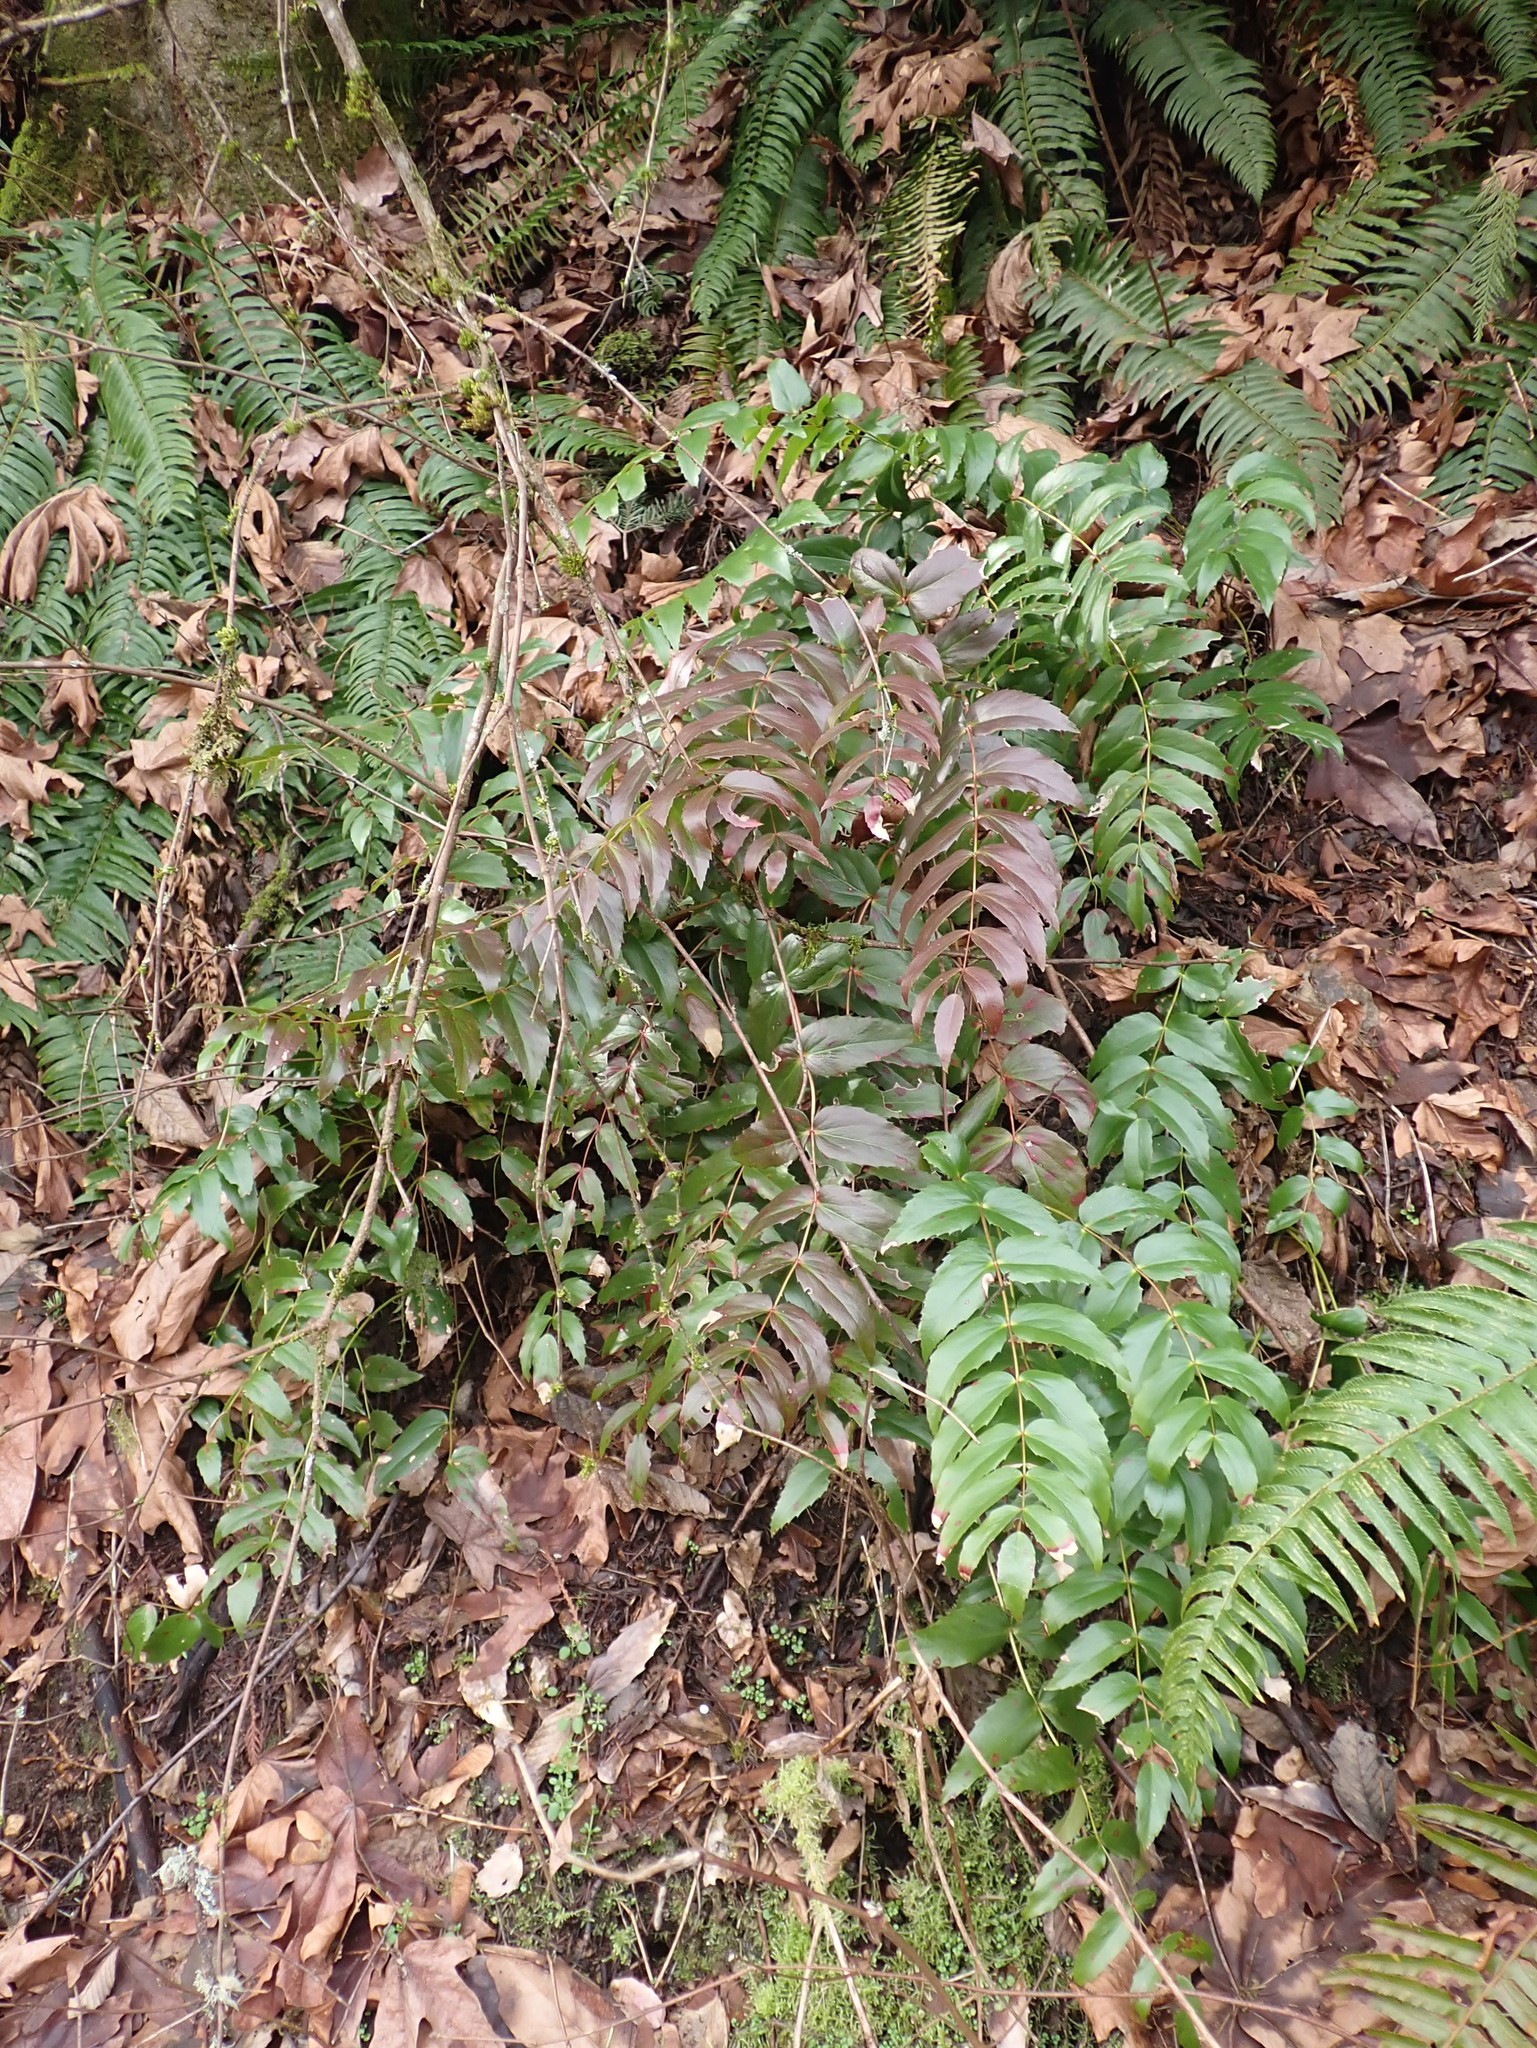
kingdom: Plantae
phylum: Tracheophyta
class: Magnoliopsida
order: Ranunculales
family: Berberidaceae
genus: Mahonia
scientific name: Mahonia nervosa
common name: Cascade oregon-grape
